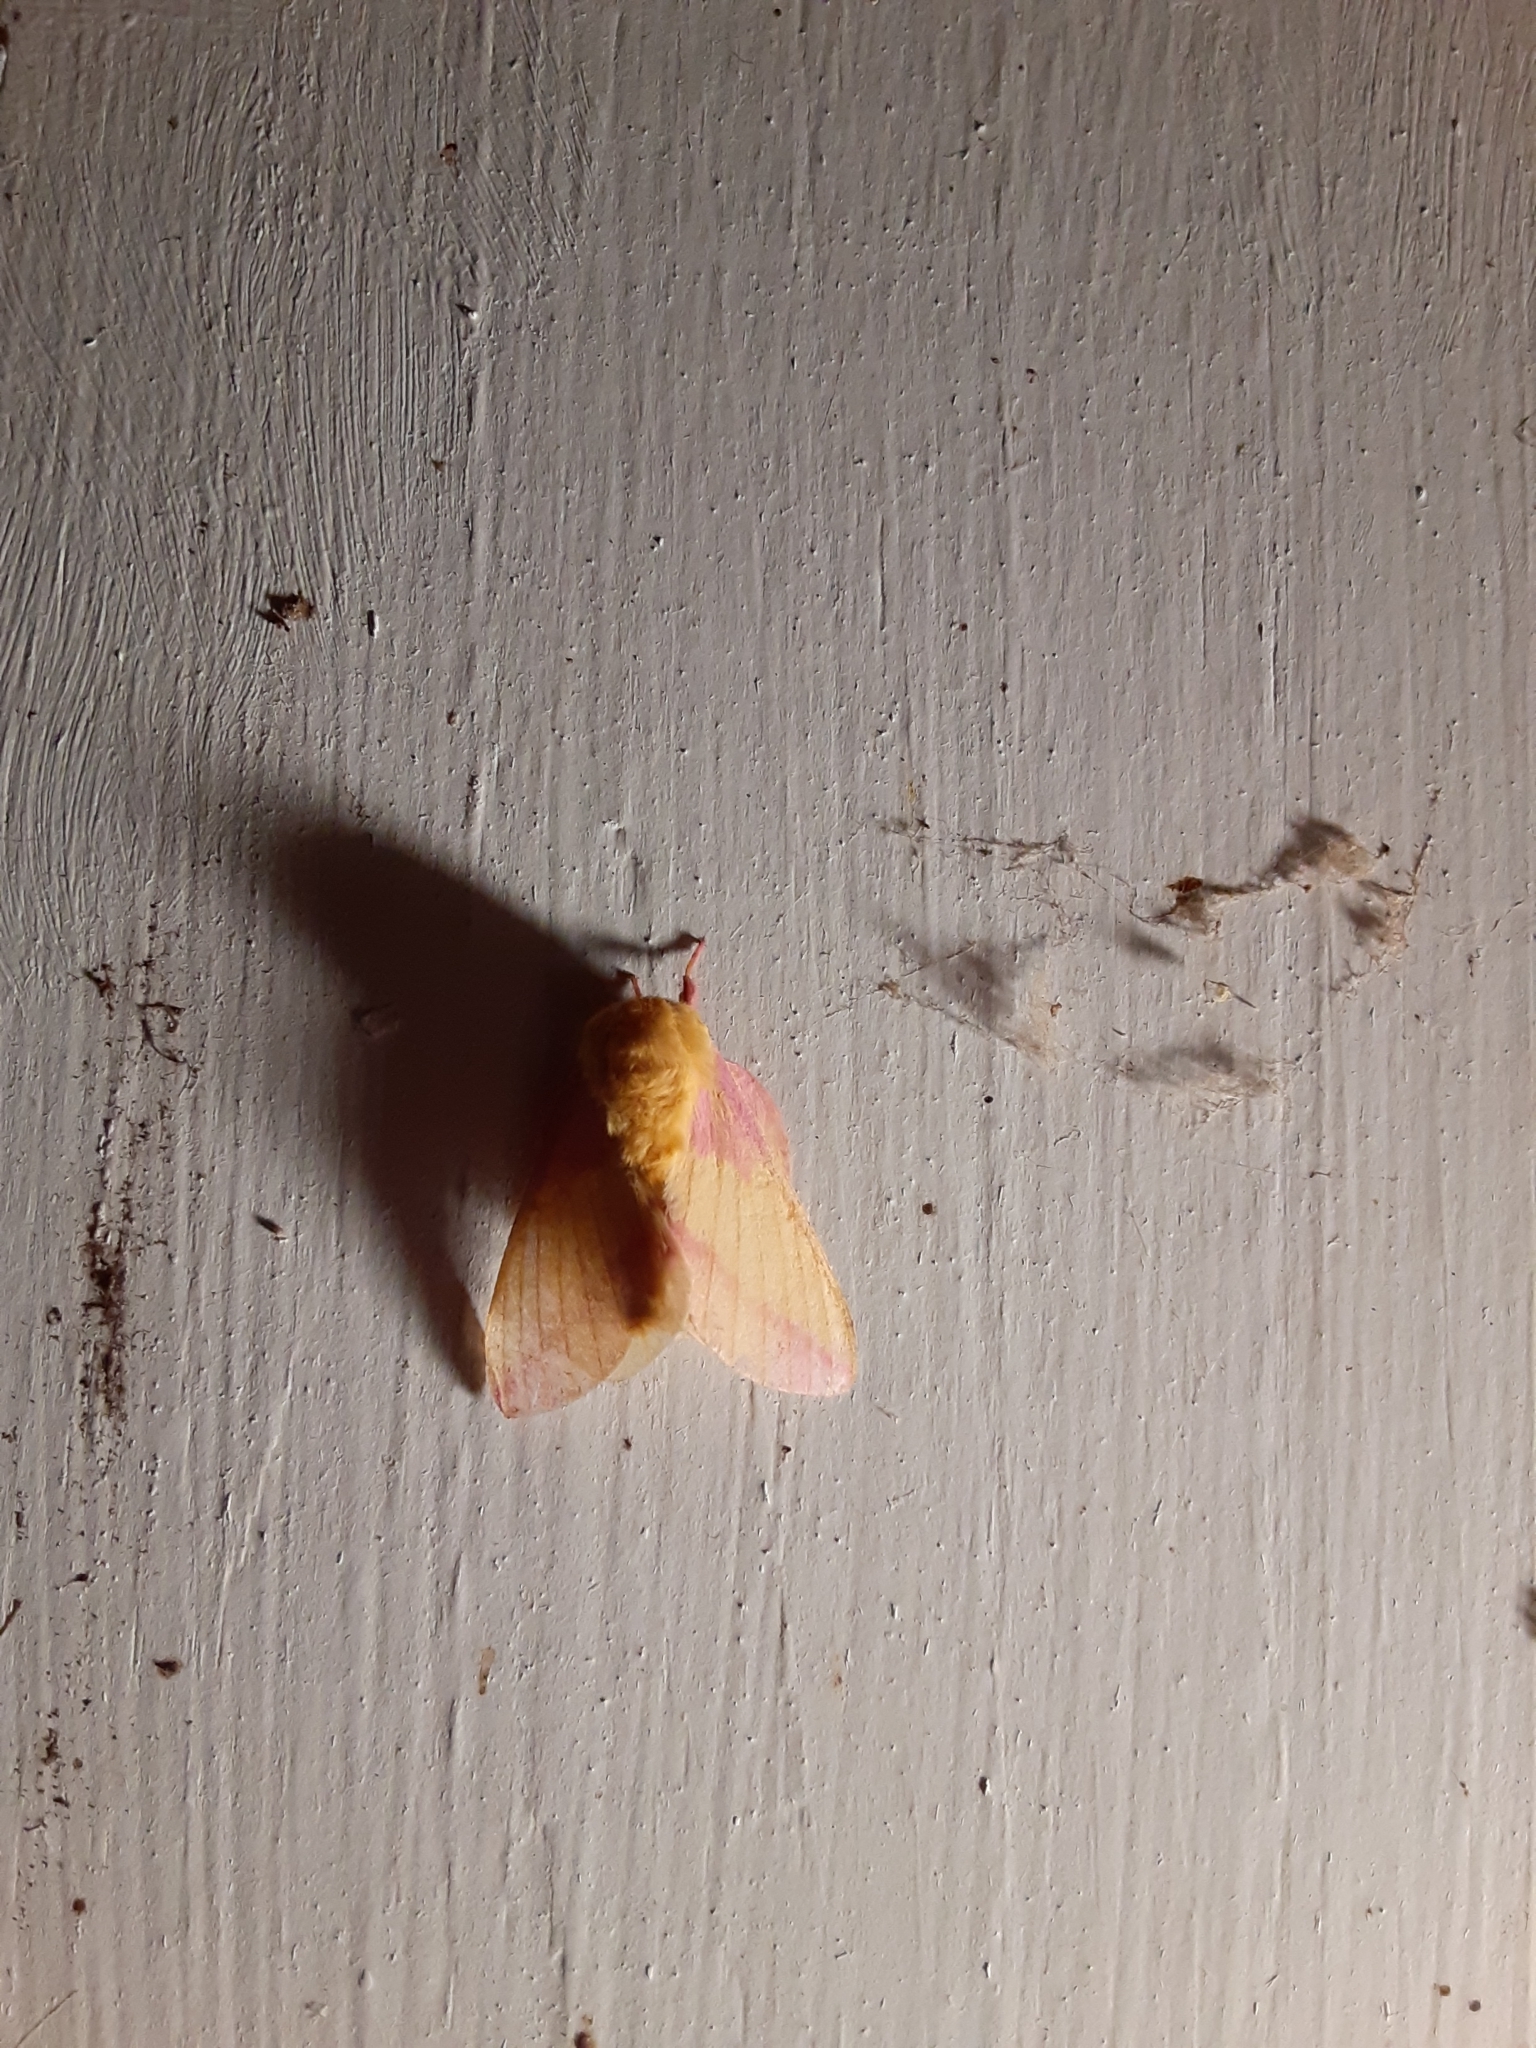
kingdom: Animalia
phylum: Arthropoda
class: Insecta
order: Lepidoptera
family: Saturniidae
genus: Dryocampa
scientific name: Dryocampa rubicunda
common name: Rosy maple moth
